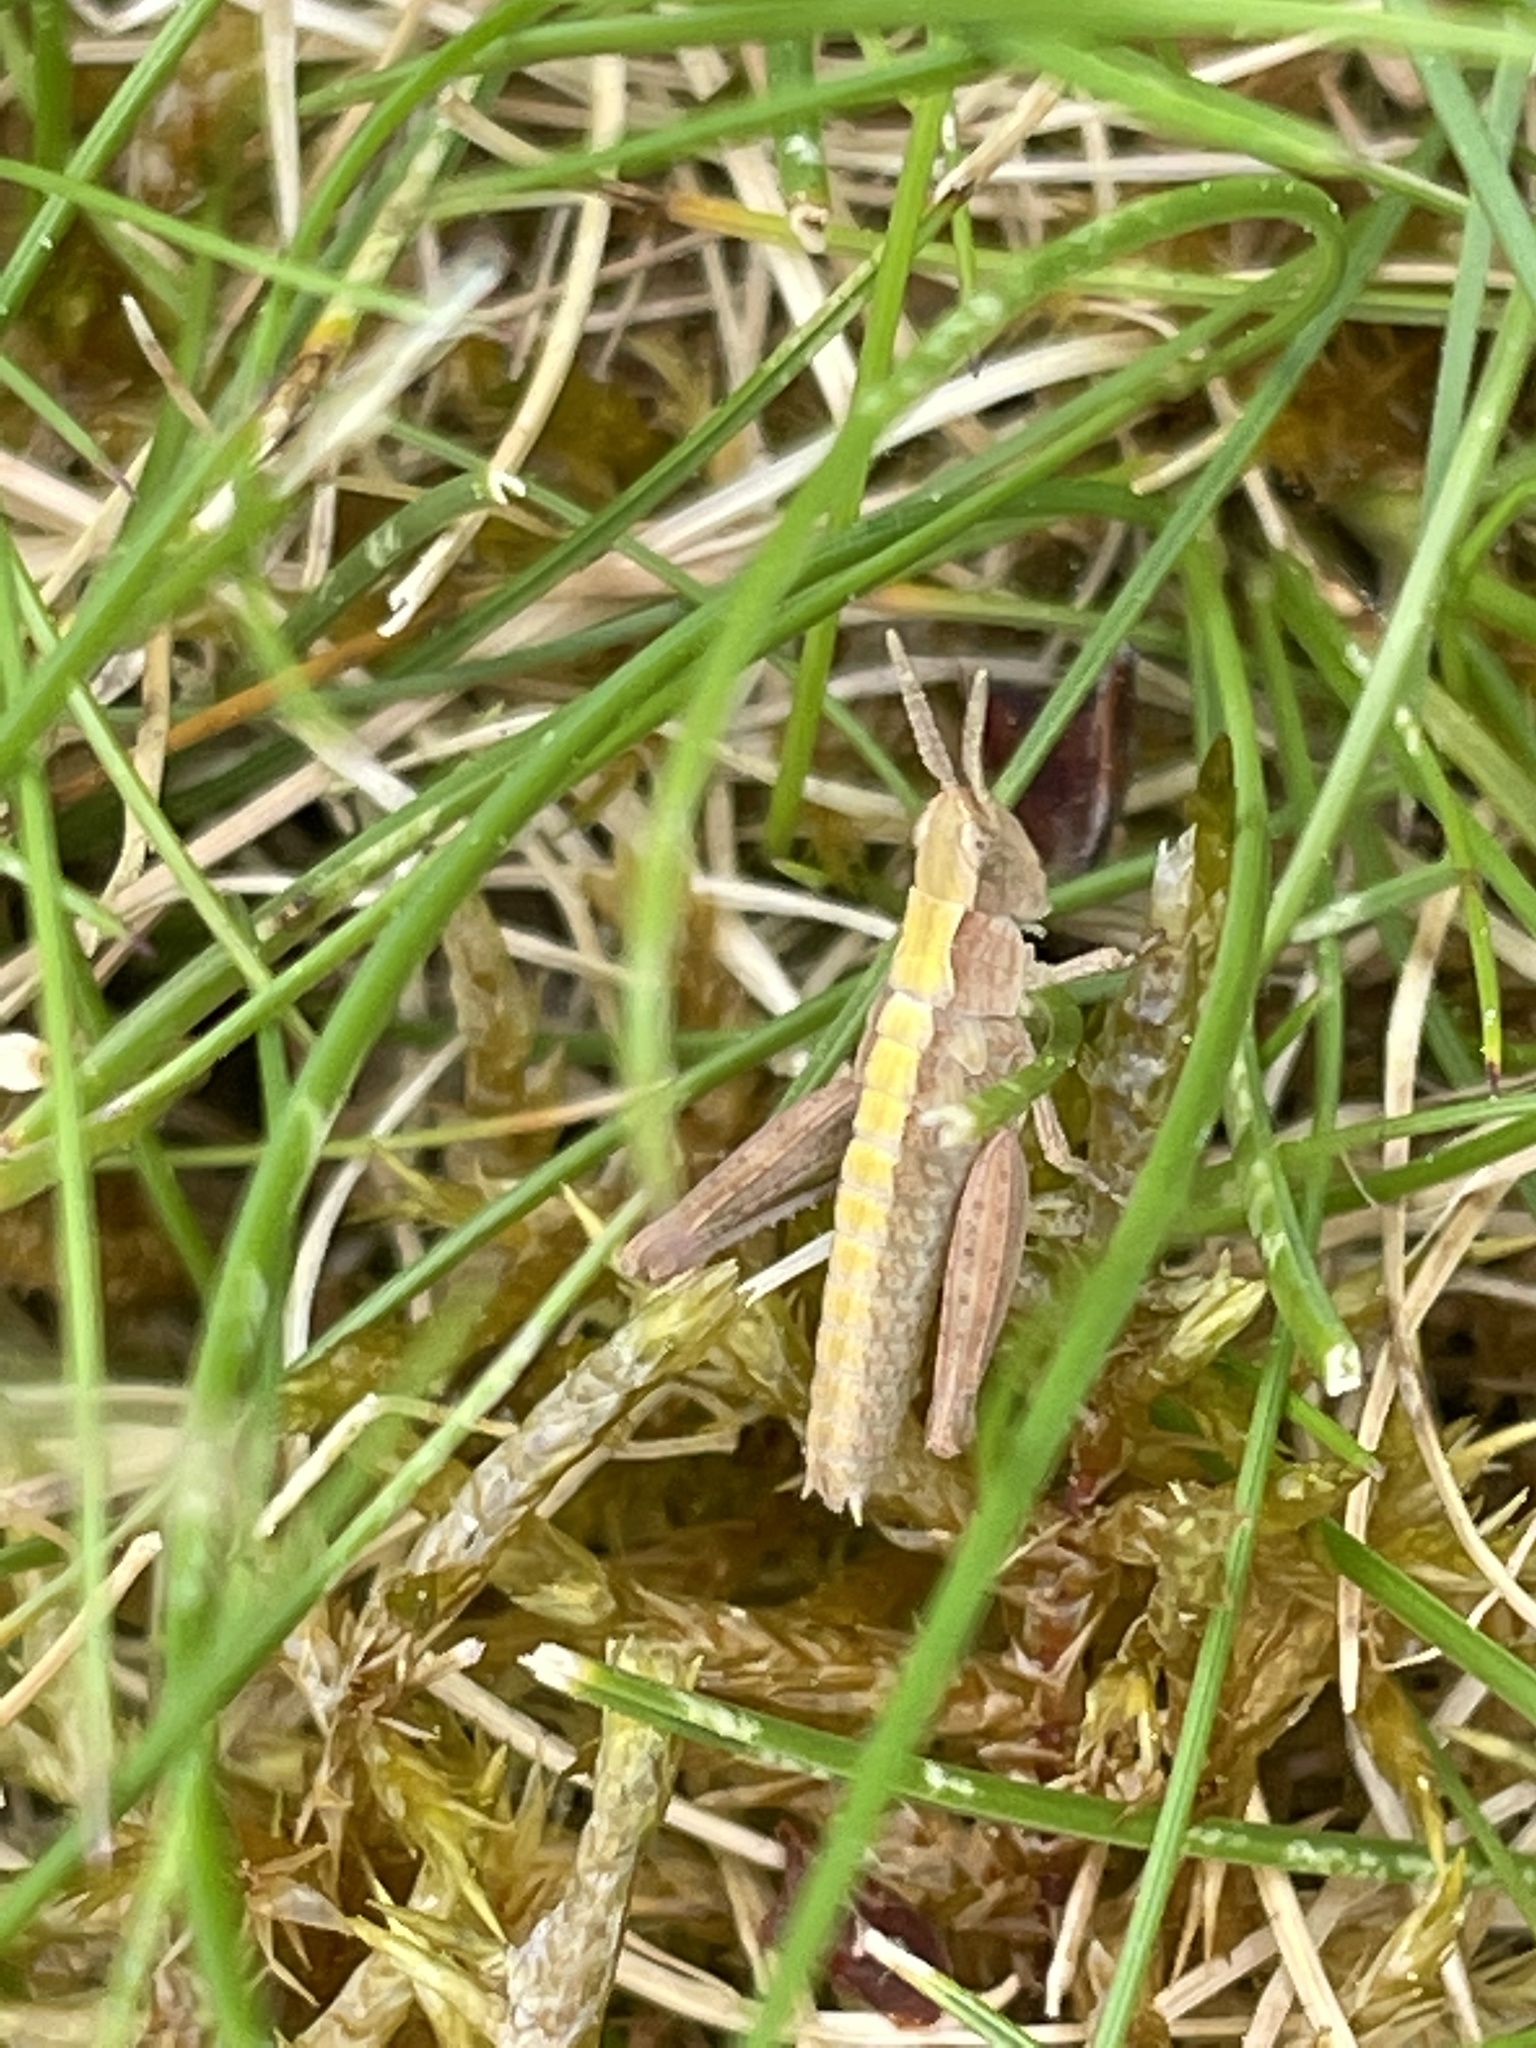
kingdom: Animalia
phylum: Arthropoda
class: Insecta
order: Orthoptera
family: Acrididae
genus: Chorthippus
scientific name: Chorthippus brunneus
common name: Field grasshopper
